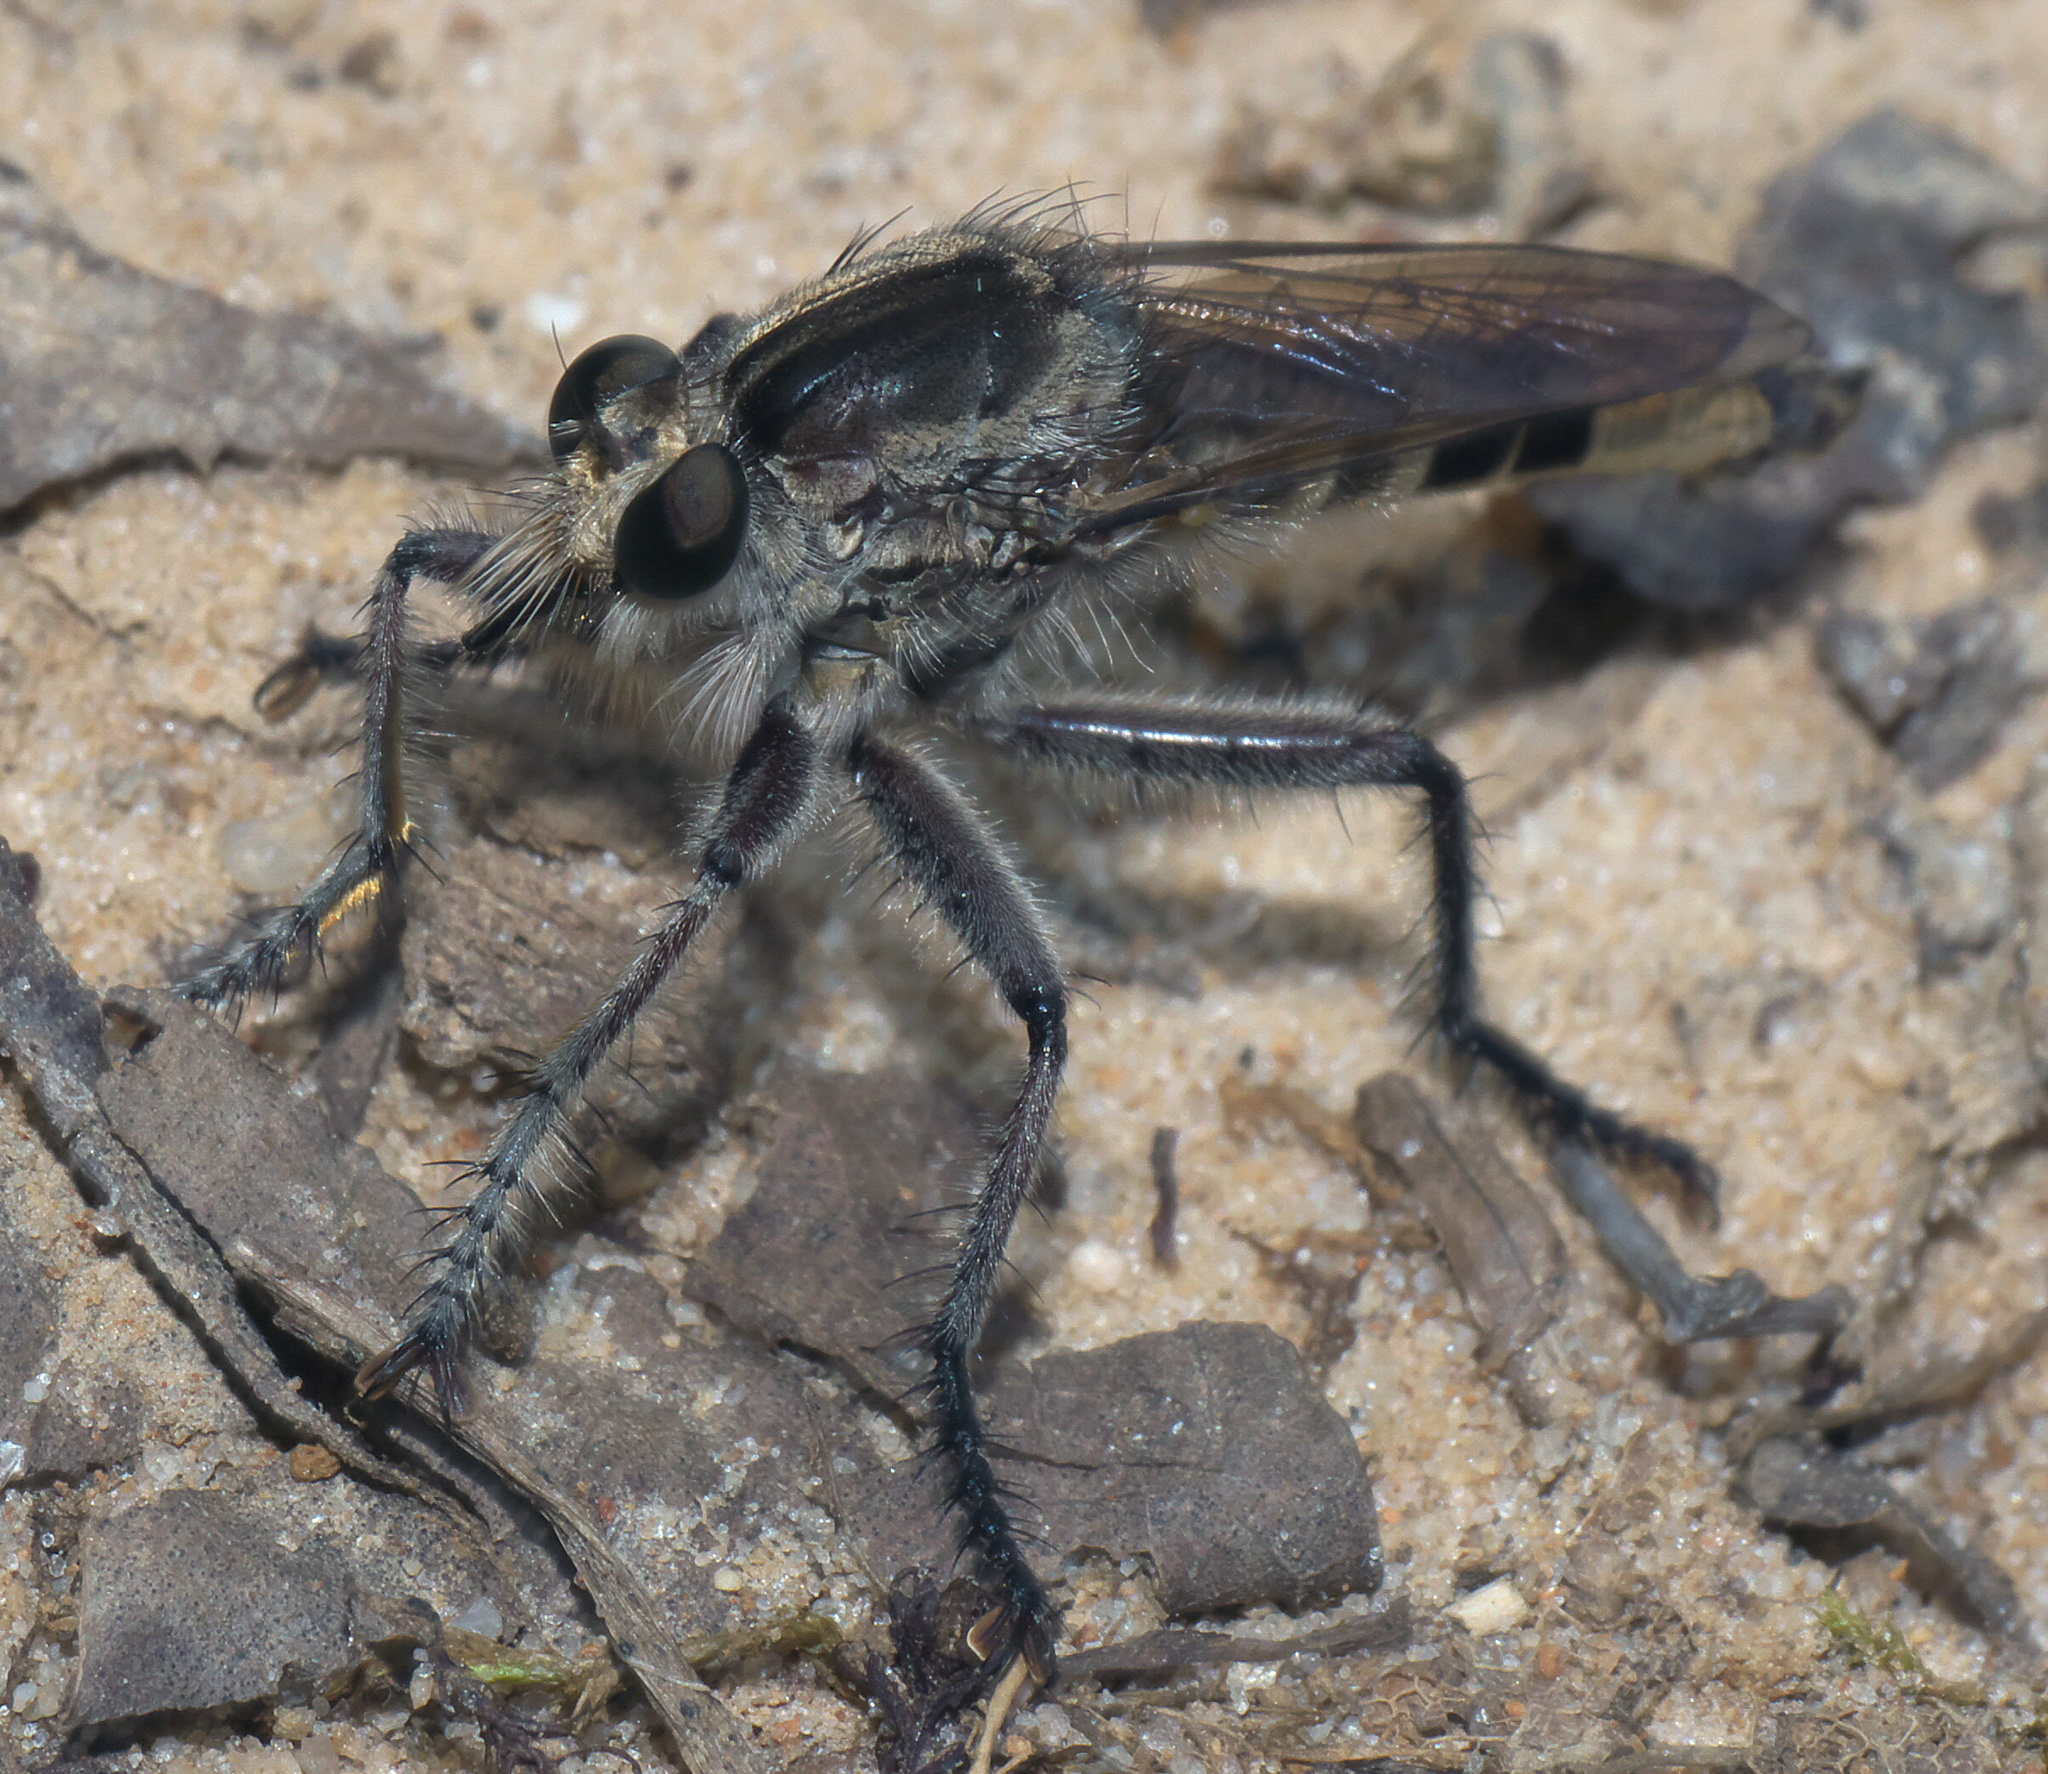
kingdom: Animalia
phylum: Arthropoda
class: Insecta
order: Diptera
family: Asilidae
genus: Triorla
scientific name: Triorla interrupta
